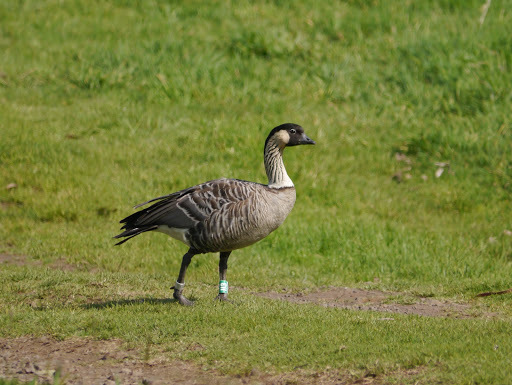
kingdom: Animalia
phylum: Chordata
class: Aves
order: Anseriformes
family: Anatidae
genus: Branta
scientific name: Branta sandvicensis
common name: Nene
